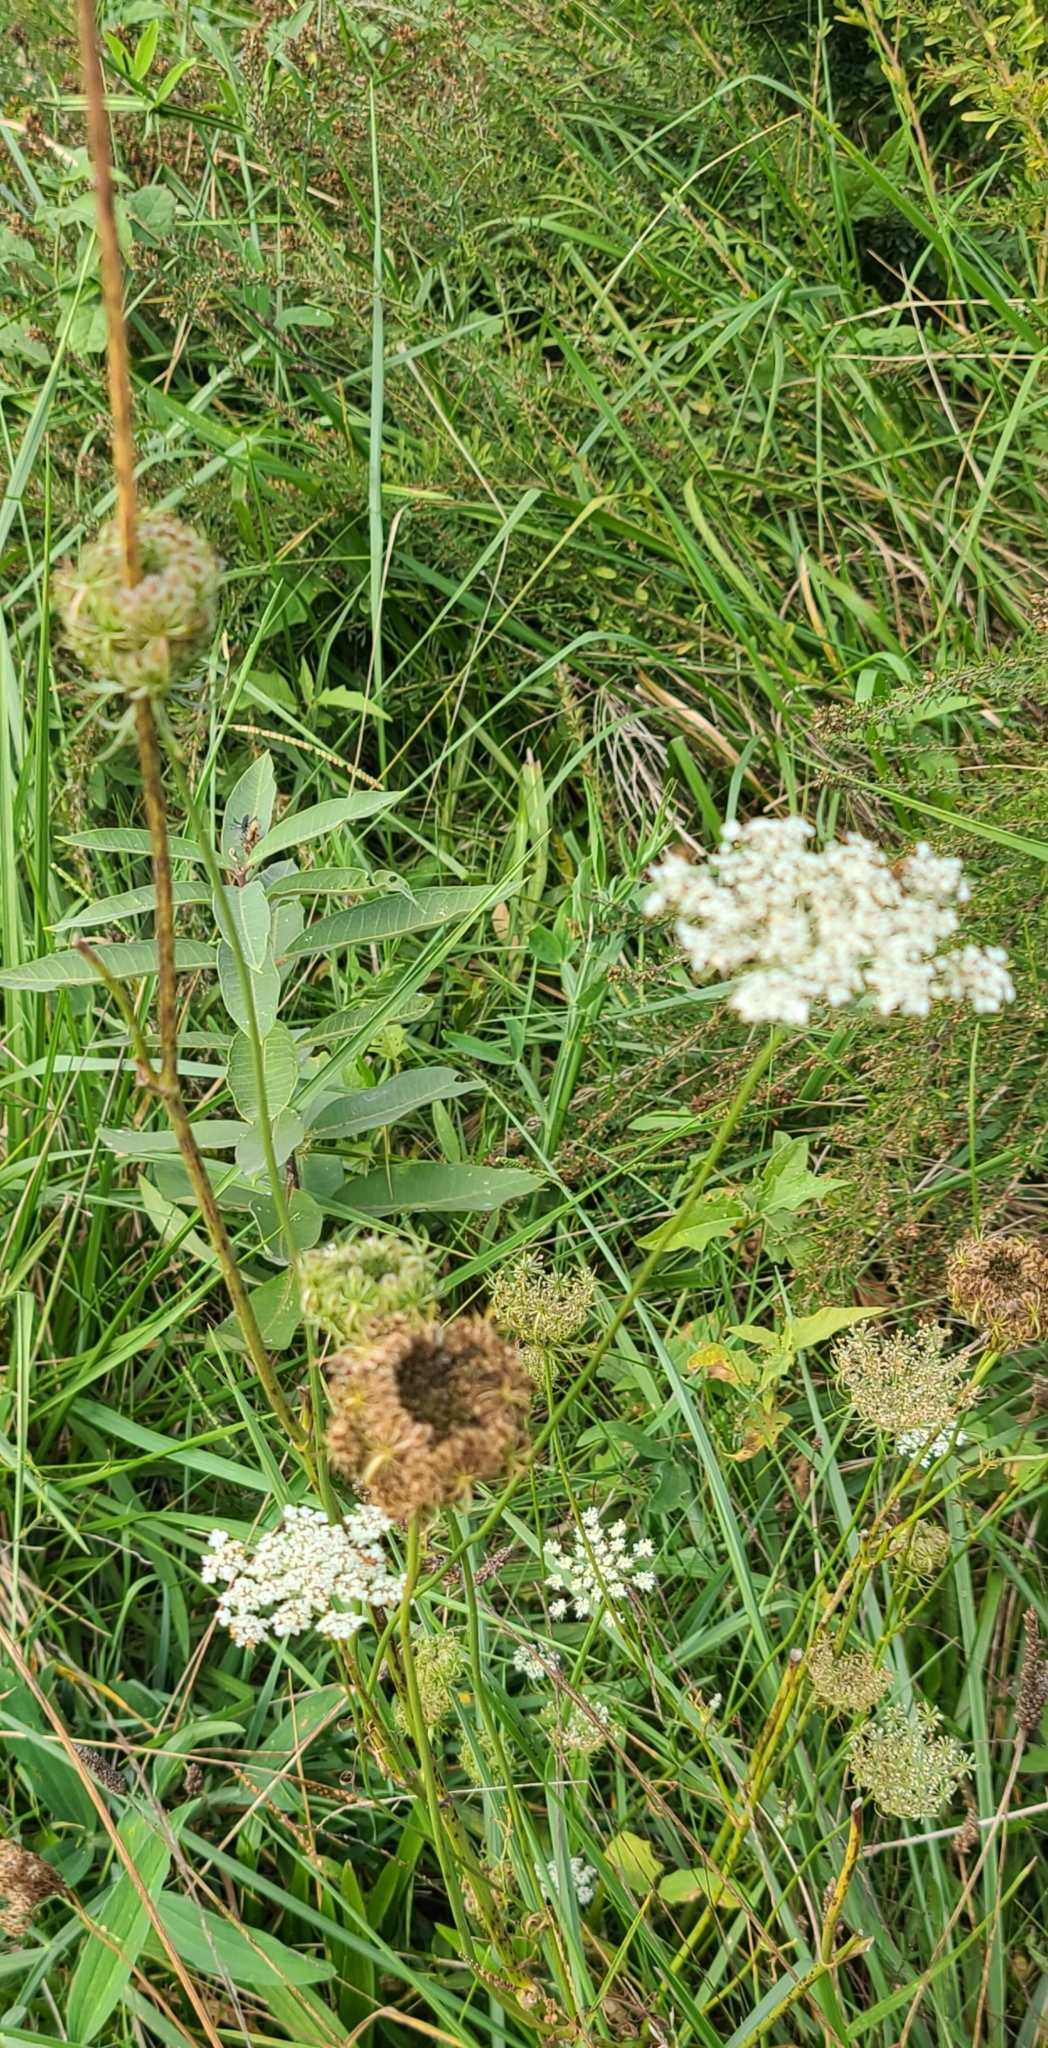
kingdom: Plantae
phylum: Tracheophyta
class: Magnoliopsida
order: Apiales
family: Apiaceae
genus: Daucus
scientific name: Daucus carota
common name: Wild carrot
